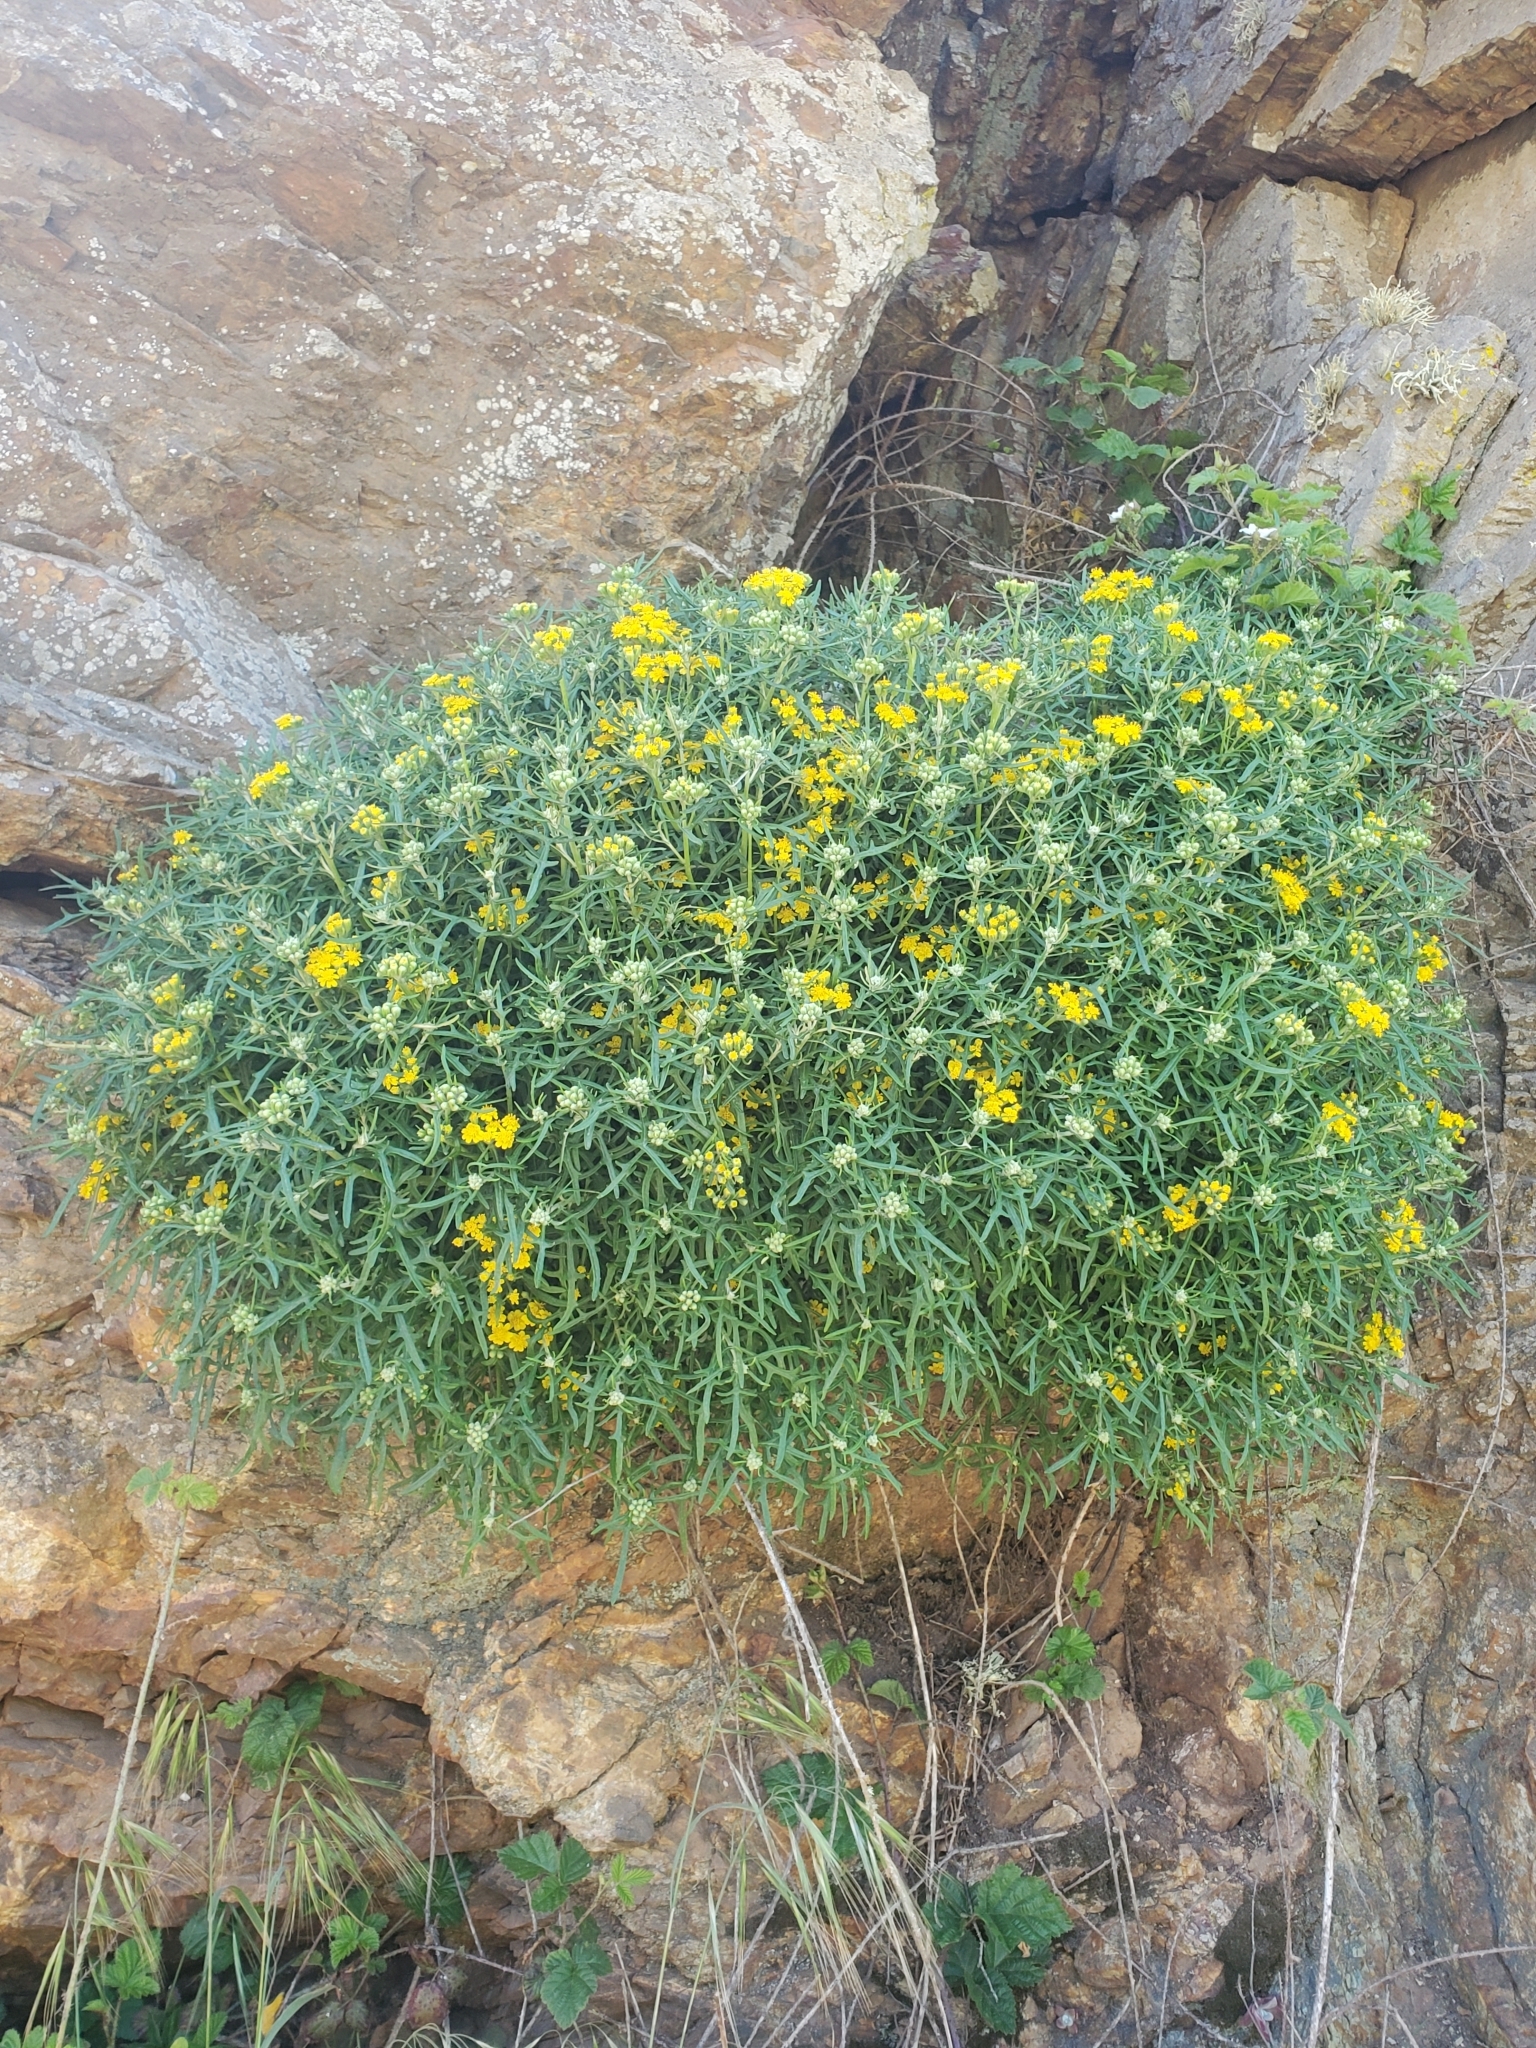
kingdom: Plantae
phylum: Tracheophyta
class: Magnoliopsida
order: Asterales
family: Asteraceae
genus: Eriophyllum
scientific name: Eriophyllum staechadifolium
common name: Lizardtail
